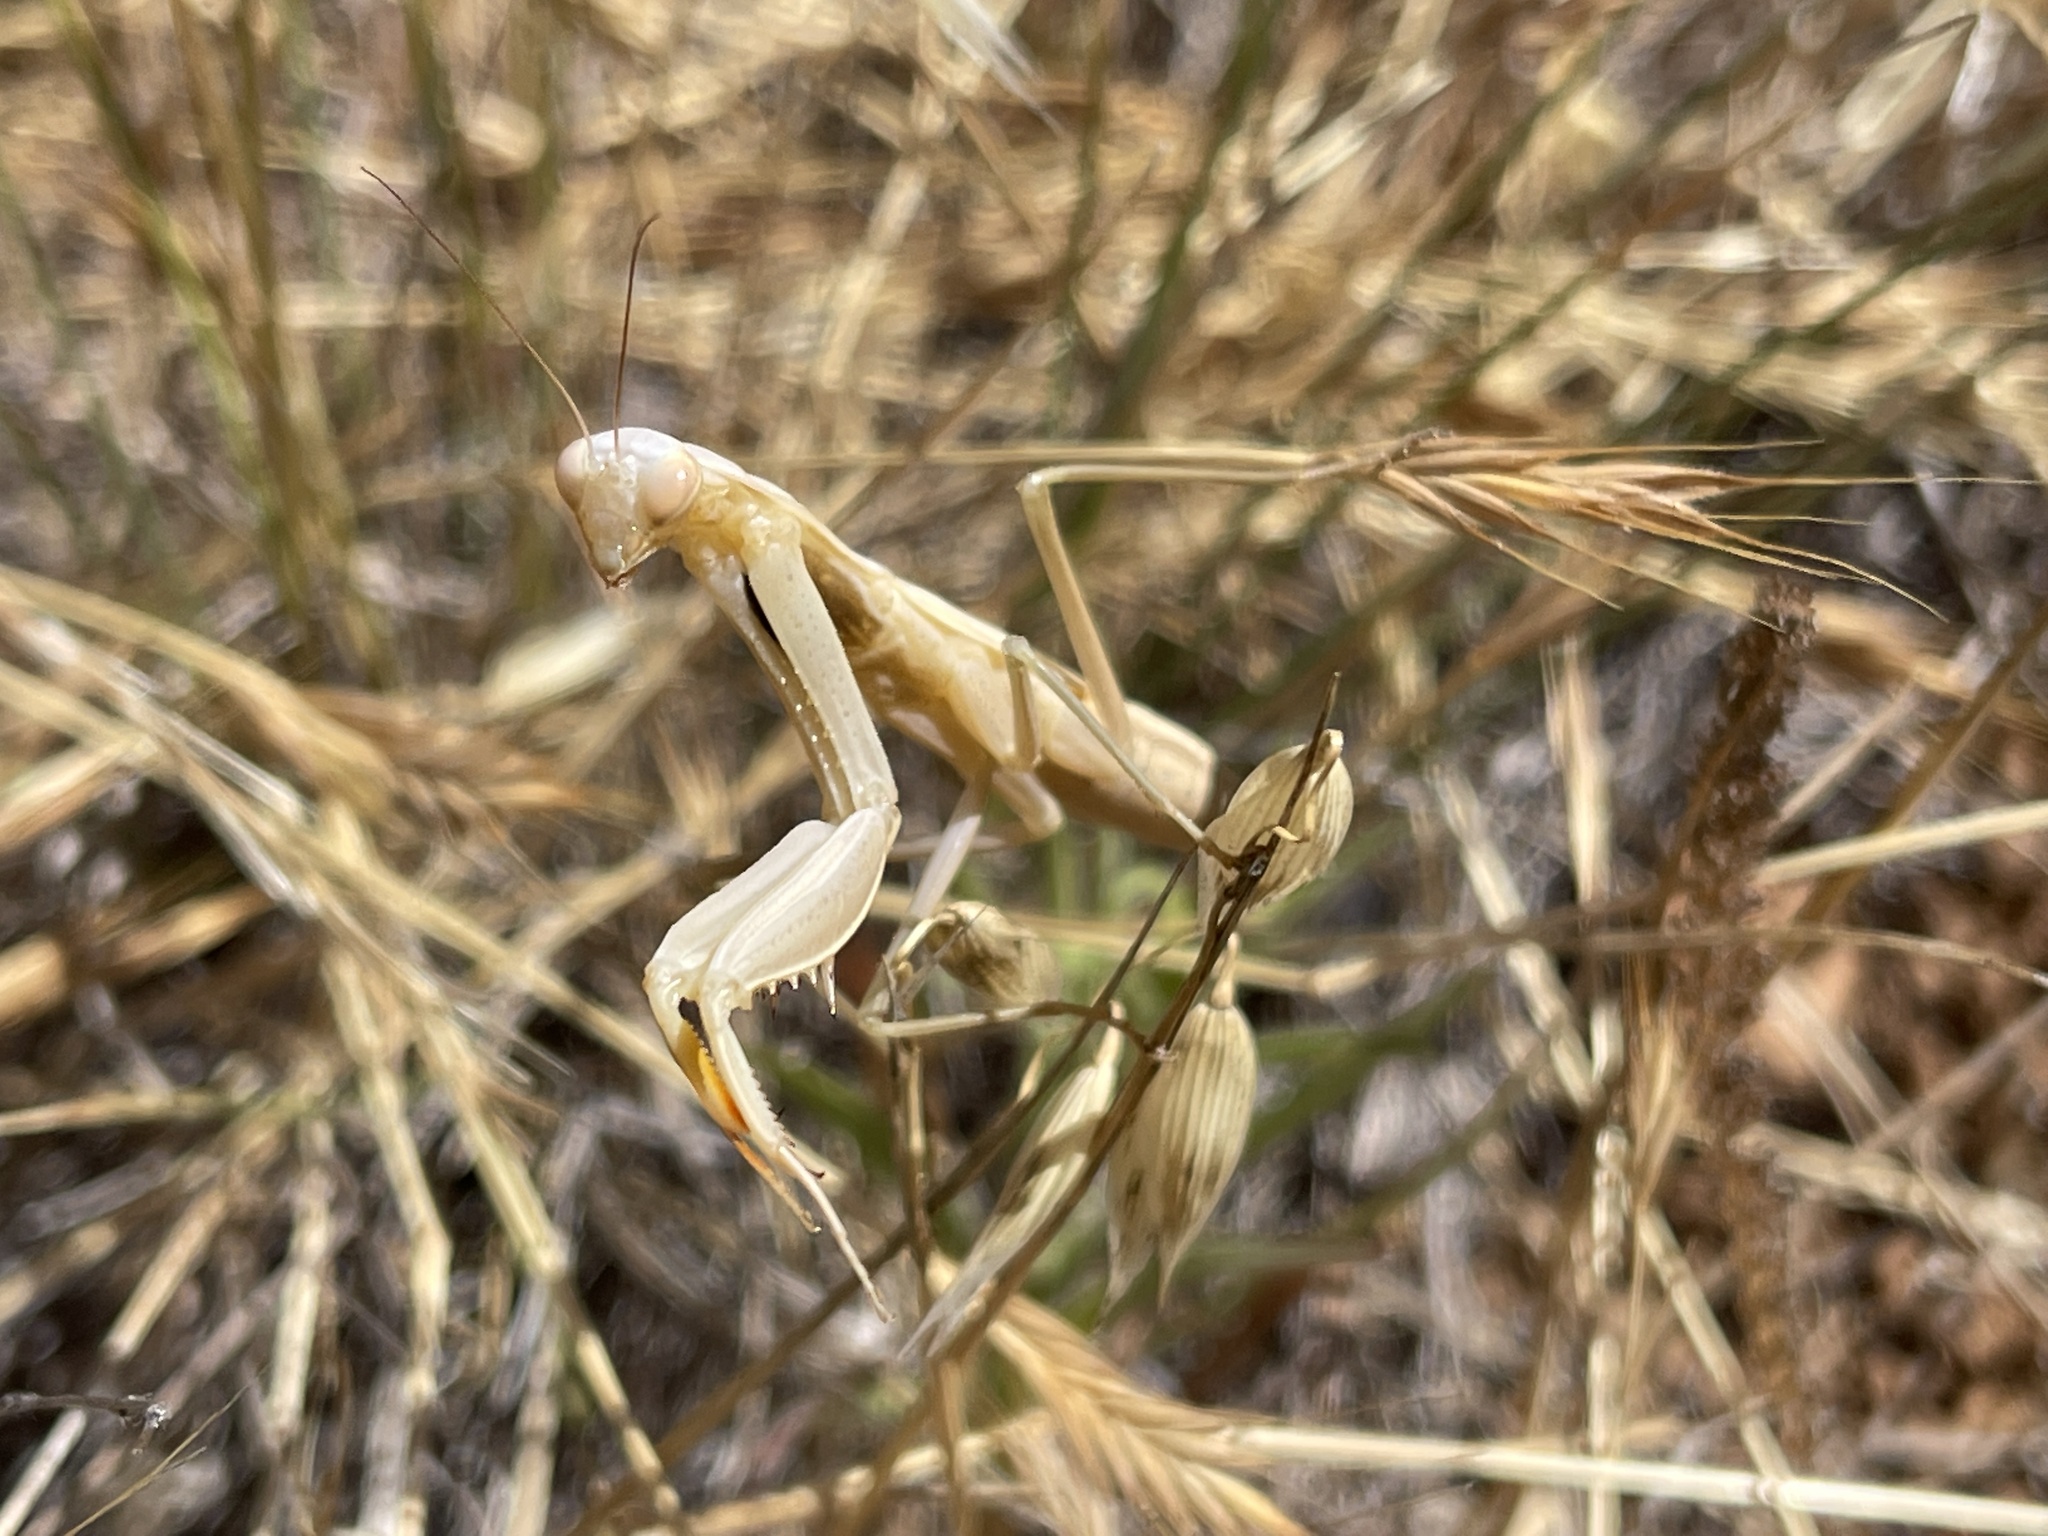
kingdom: Animalia
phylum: Arthropoda
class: Insecta
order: Mantodea
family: Mantidae
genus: Mantis
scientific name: Mantis religiosa
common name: Praying mantis
